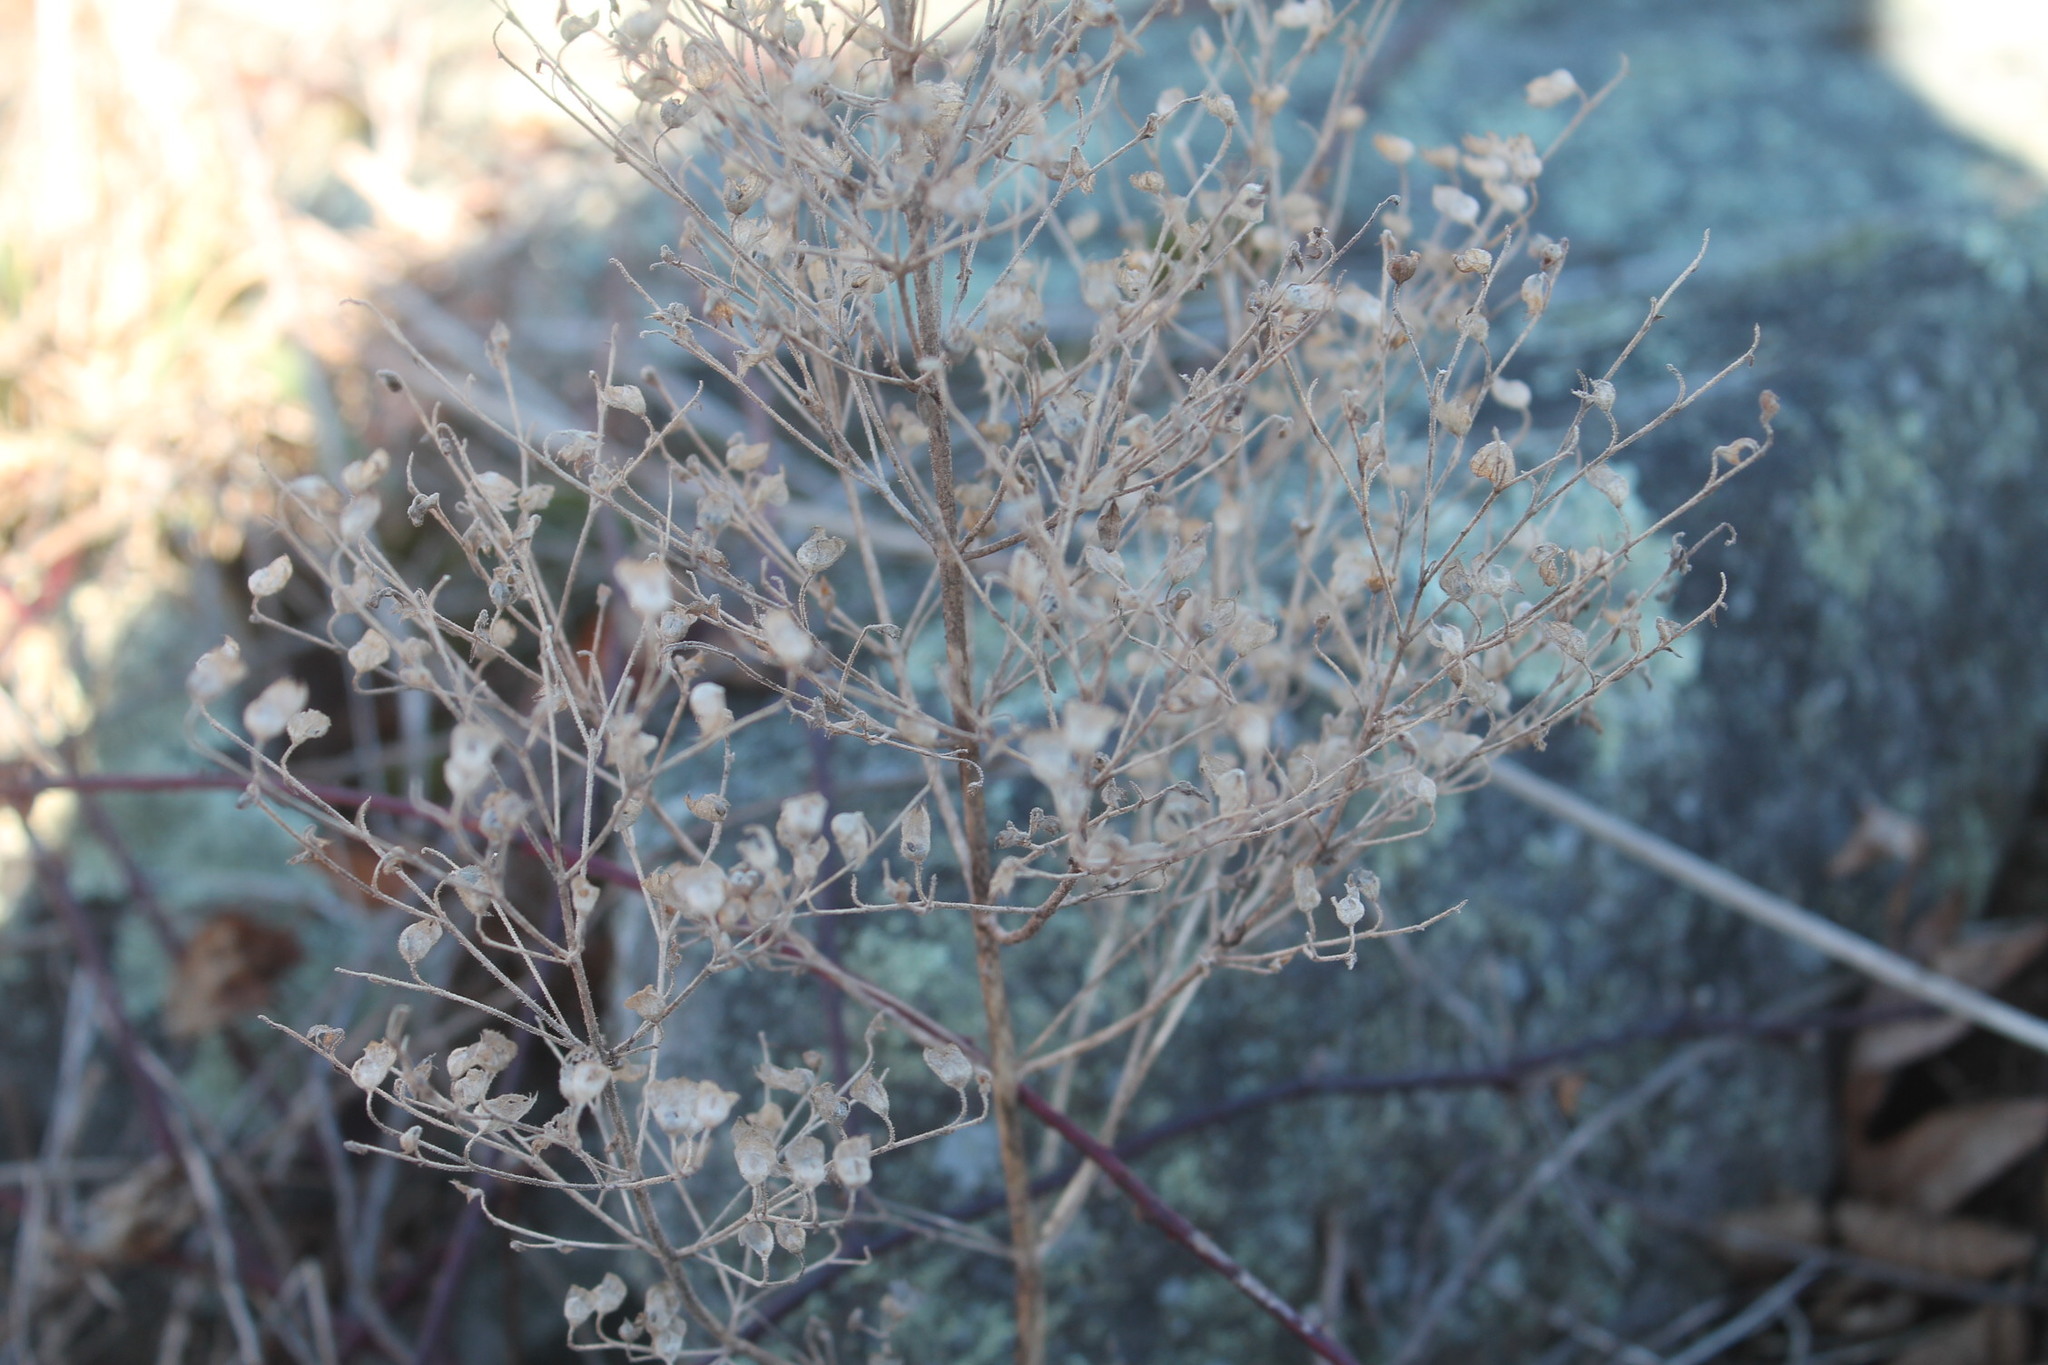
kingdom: Plantae
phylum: Tracheophyta
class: Magnoliopsida
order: Lamiales
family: Lamiaceae
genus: Trichostema
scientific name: Trichostema dichotomum
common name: Bastard pennyroyal
